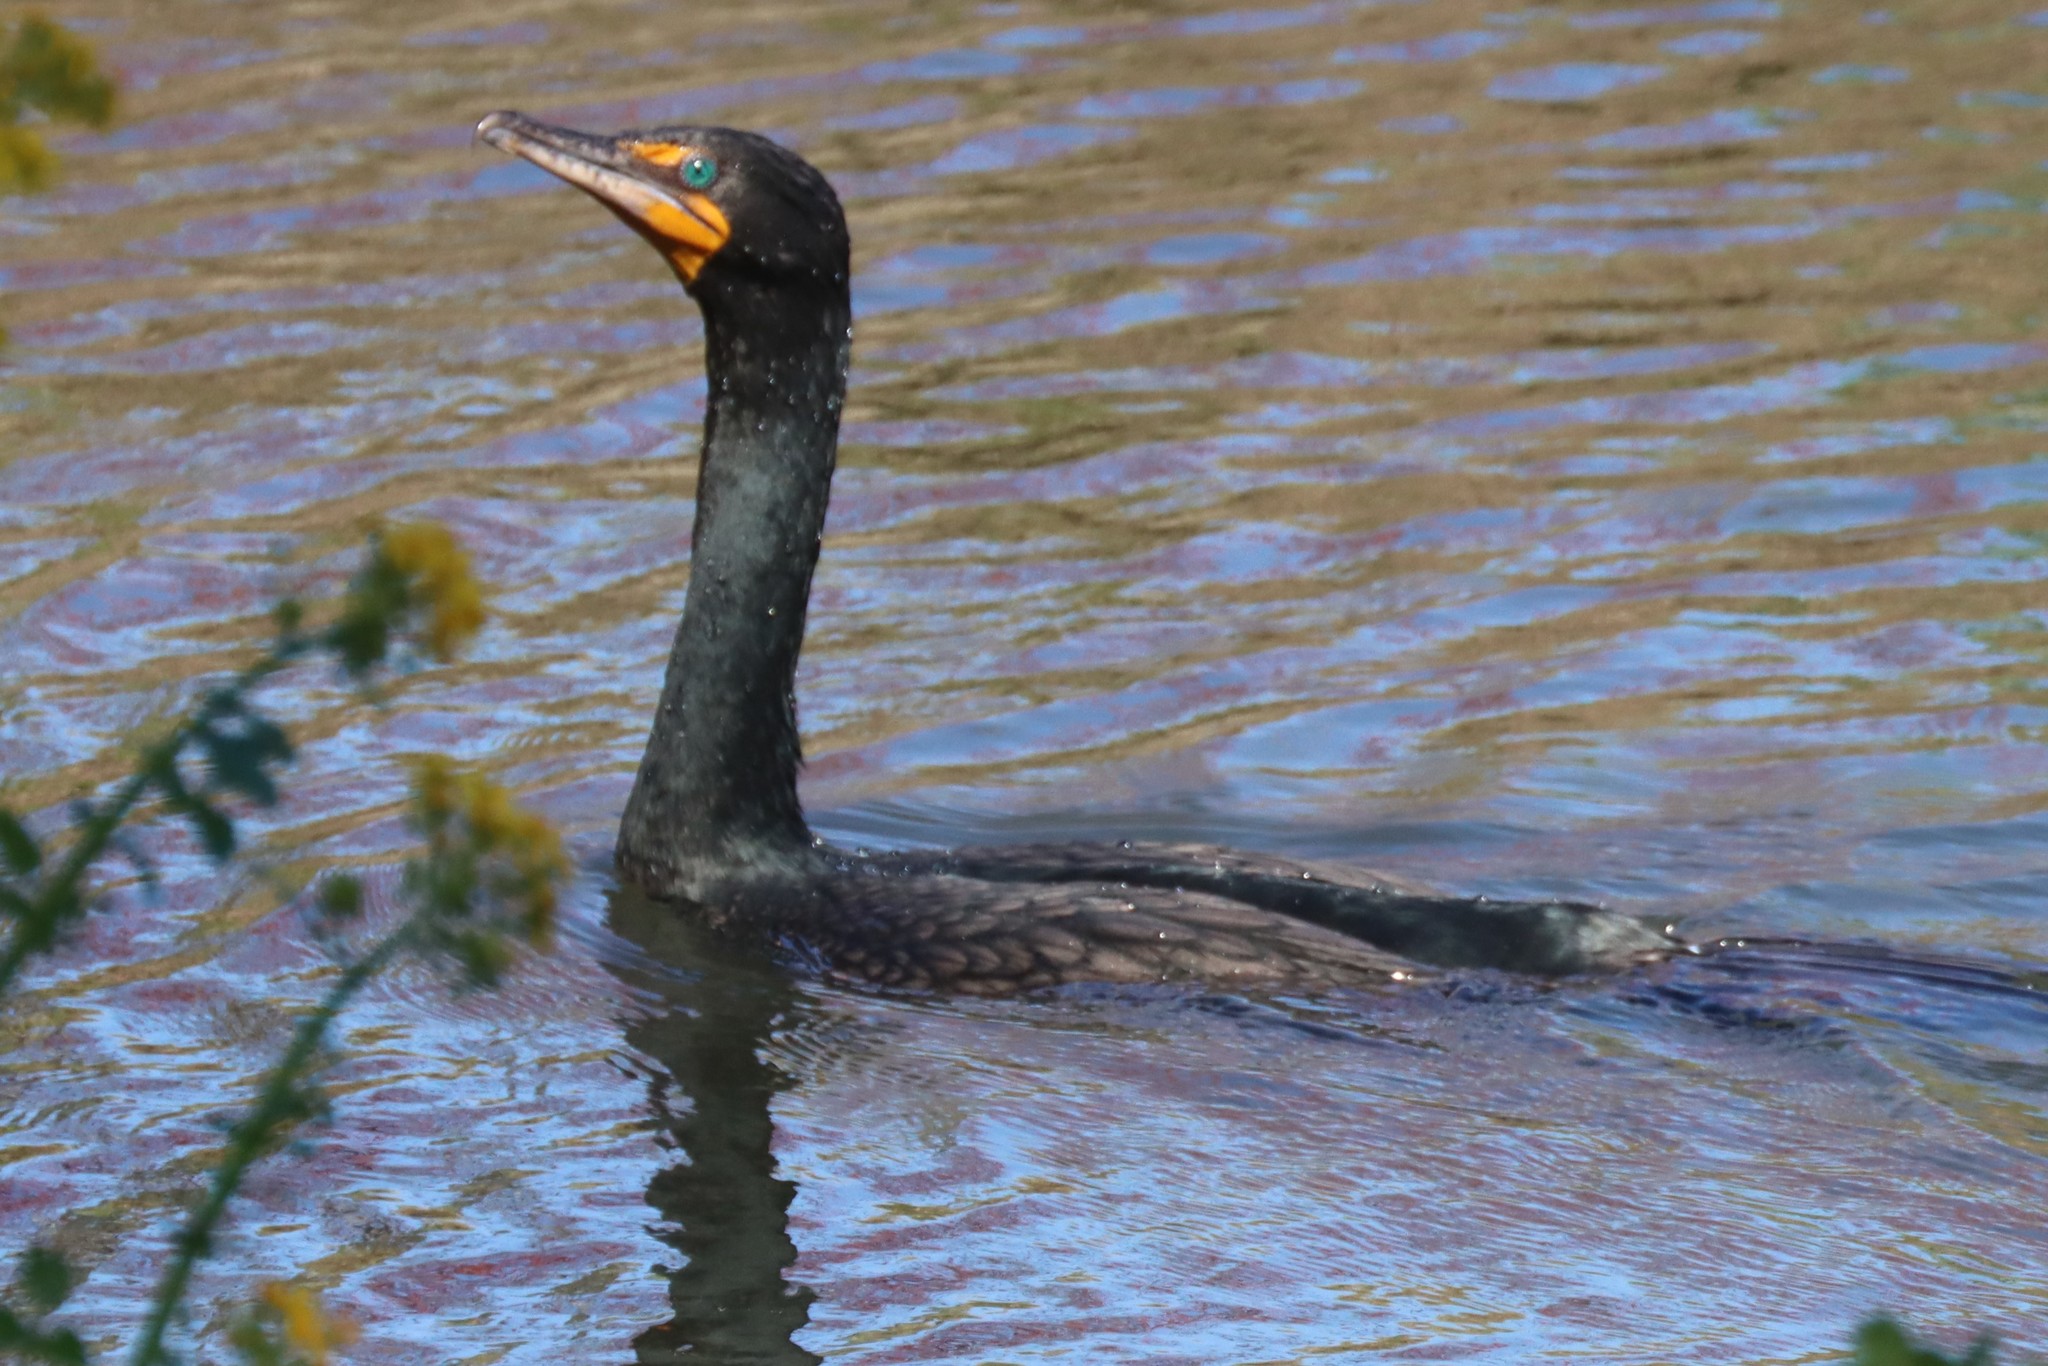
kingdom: Animalia
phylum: Chordata
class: Aves
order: Suliformes
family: Phalacrocoracidae
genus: Phalacrocorax
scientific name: Phalacrocorax auritus
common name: Double-crested cormorant
